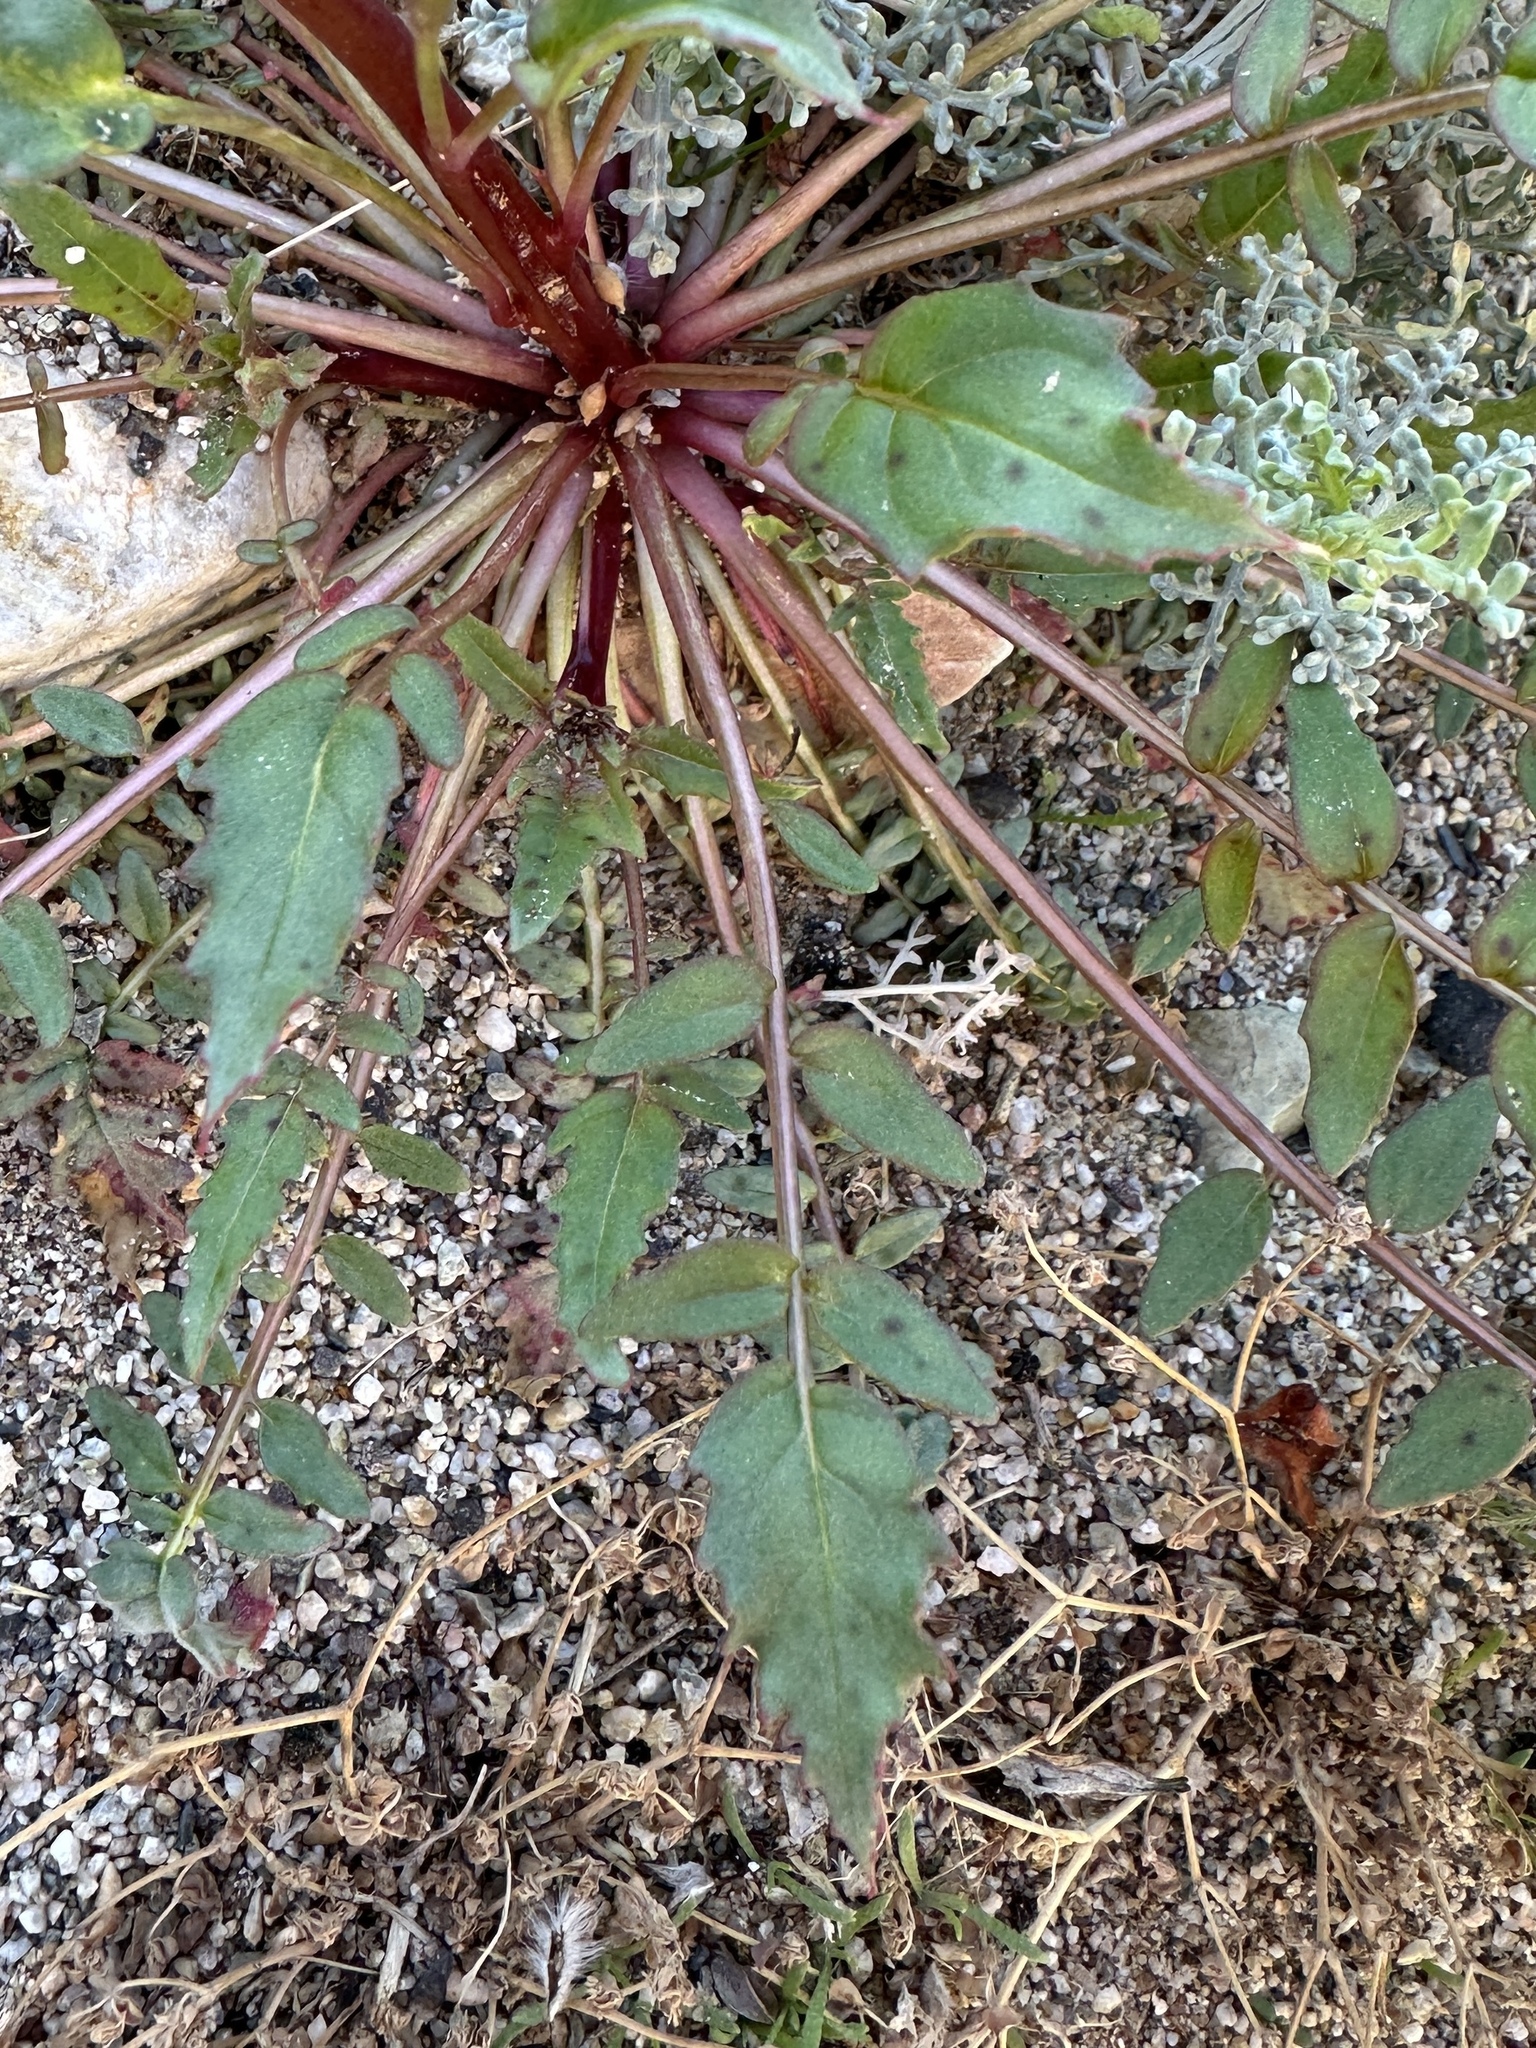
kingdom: Plantae
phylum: Tracheophyta
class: Magnoliopsida
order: Myrtales
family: Onagraceae
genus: Chylismia
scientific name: Chylismia claviformis
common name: Browneyes
